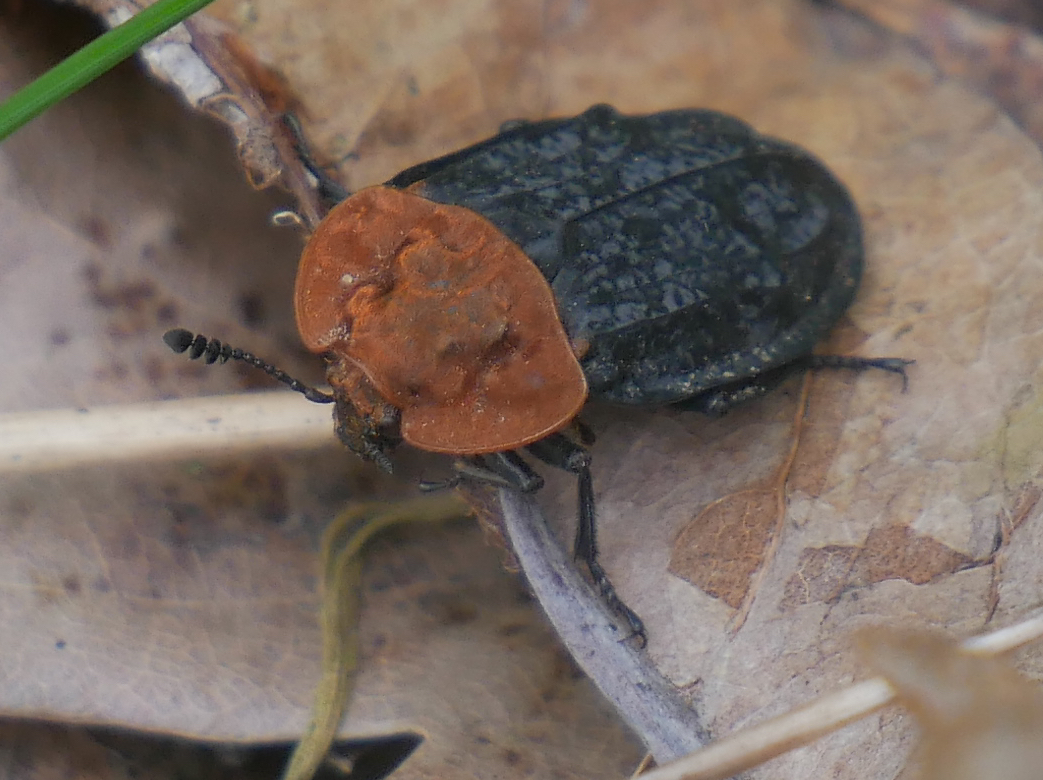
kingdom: Animalia
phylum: Arthropoda
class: Insecta
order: Coleoptera
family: Staphylinidae
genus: Oiceoptoma
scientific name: Oiceoptoma thoracicum
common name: Red-breasted carrion beetle
